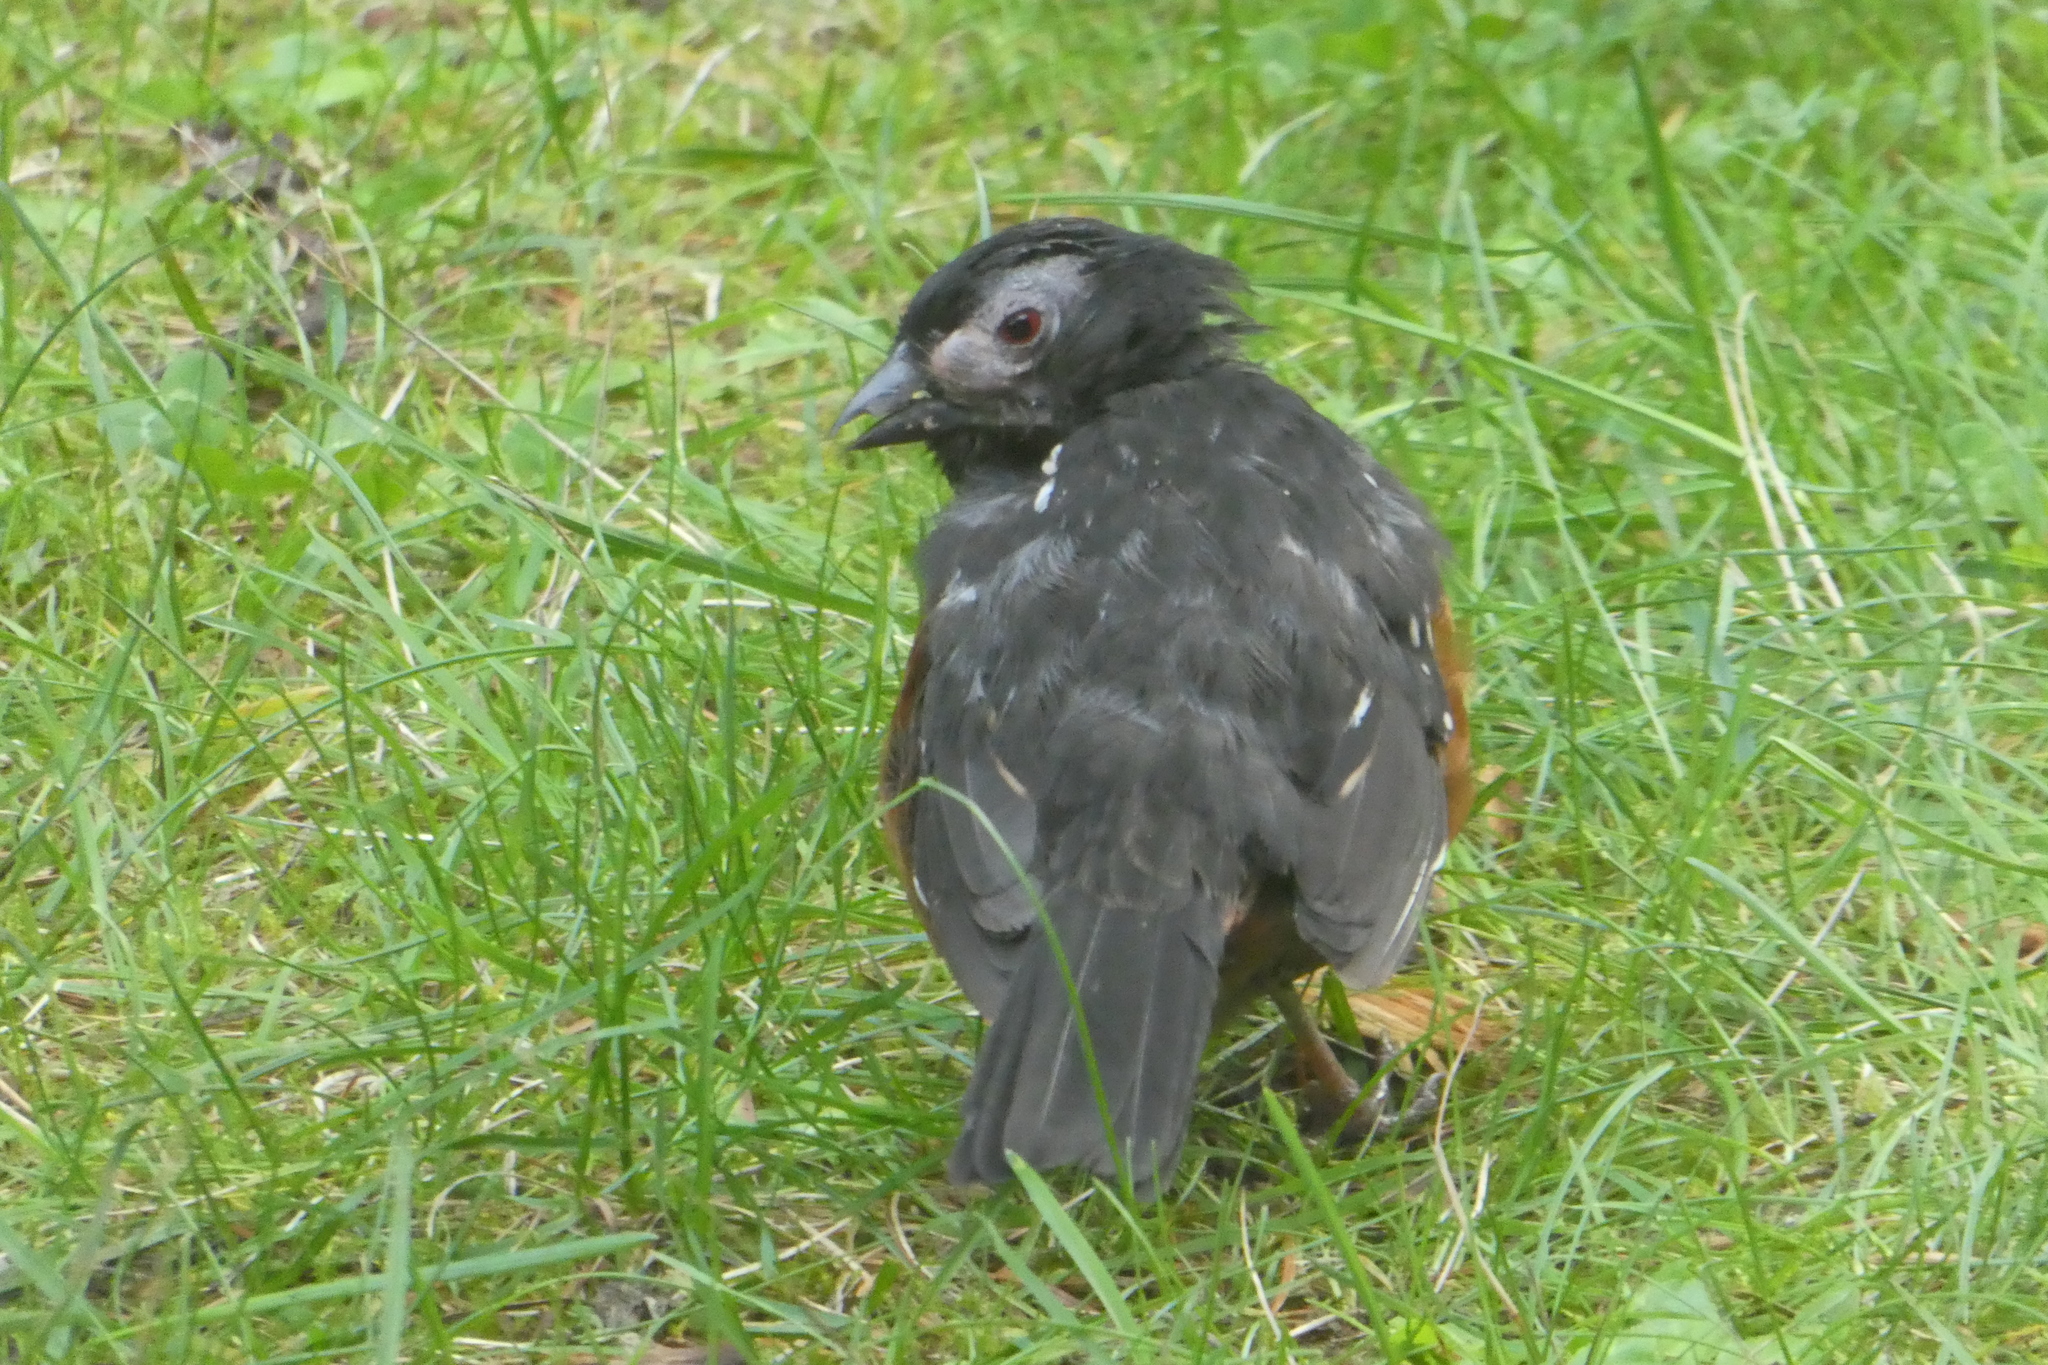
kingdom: Animalia
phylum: Chordata
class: Aves
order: Passeriformes
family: Passerellidae
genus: Pipilo
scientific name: Pipilo maculatus
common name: Spotted towhee
